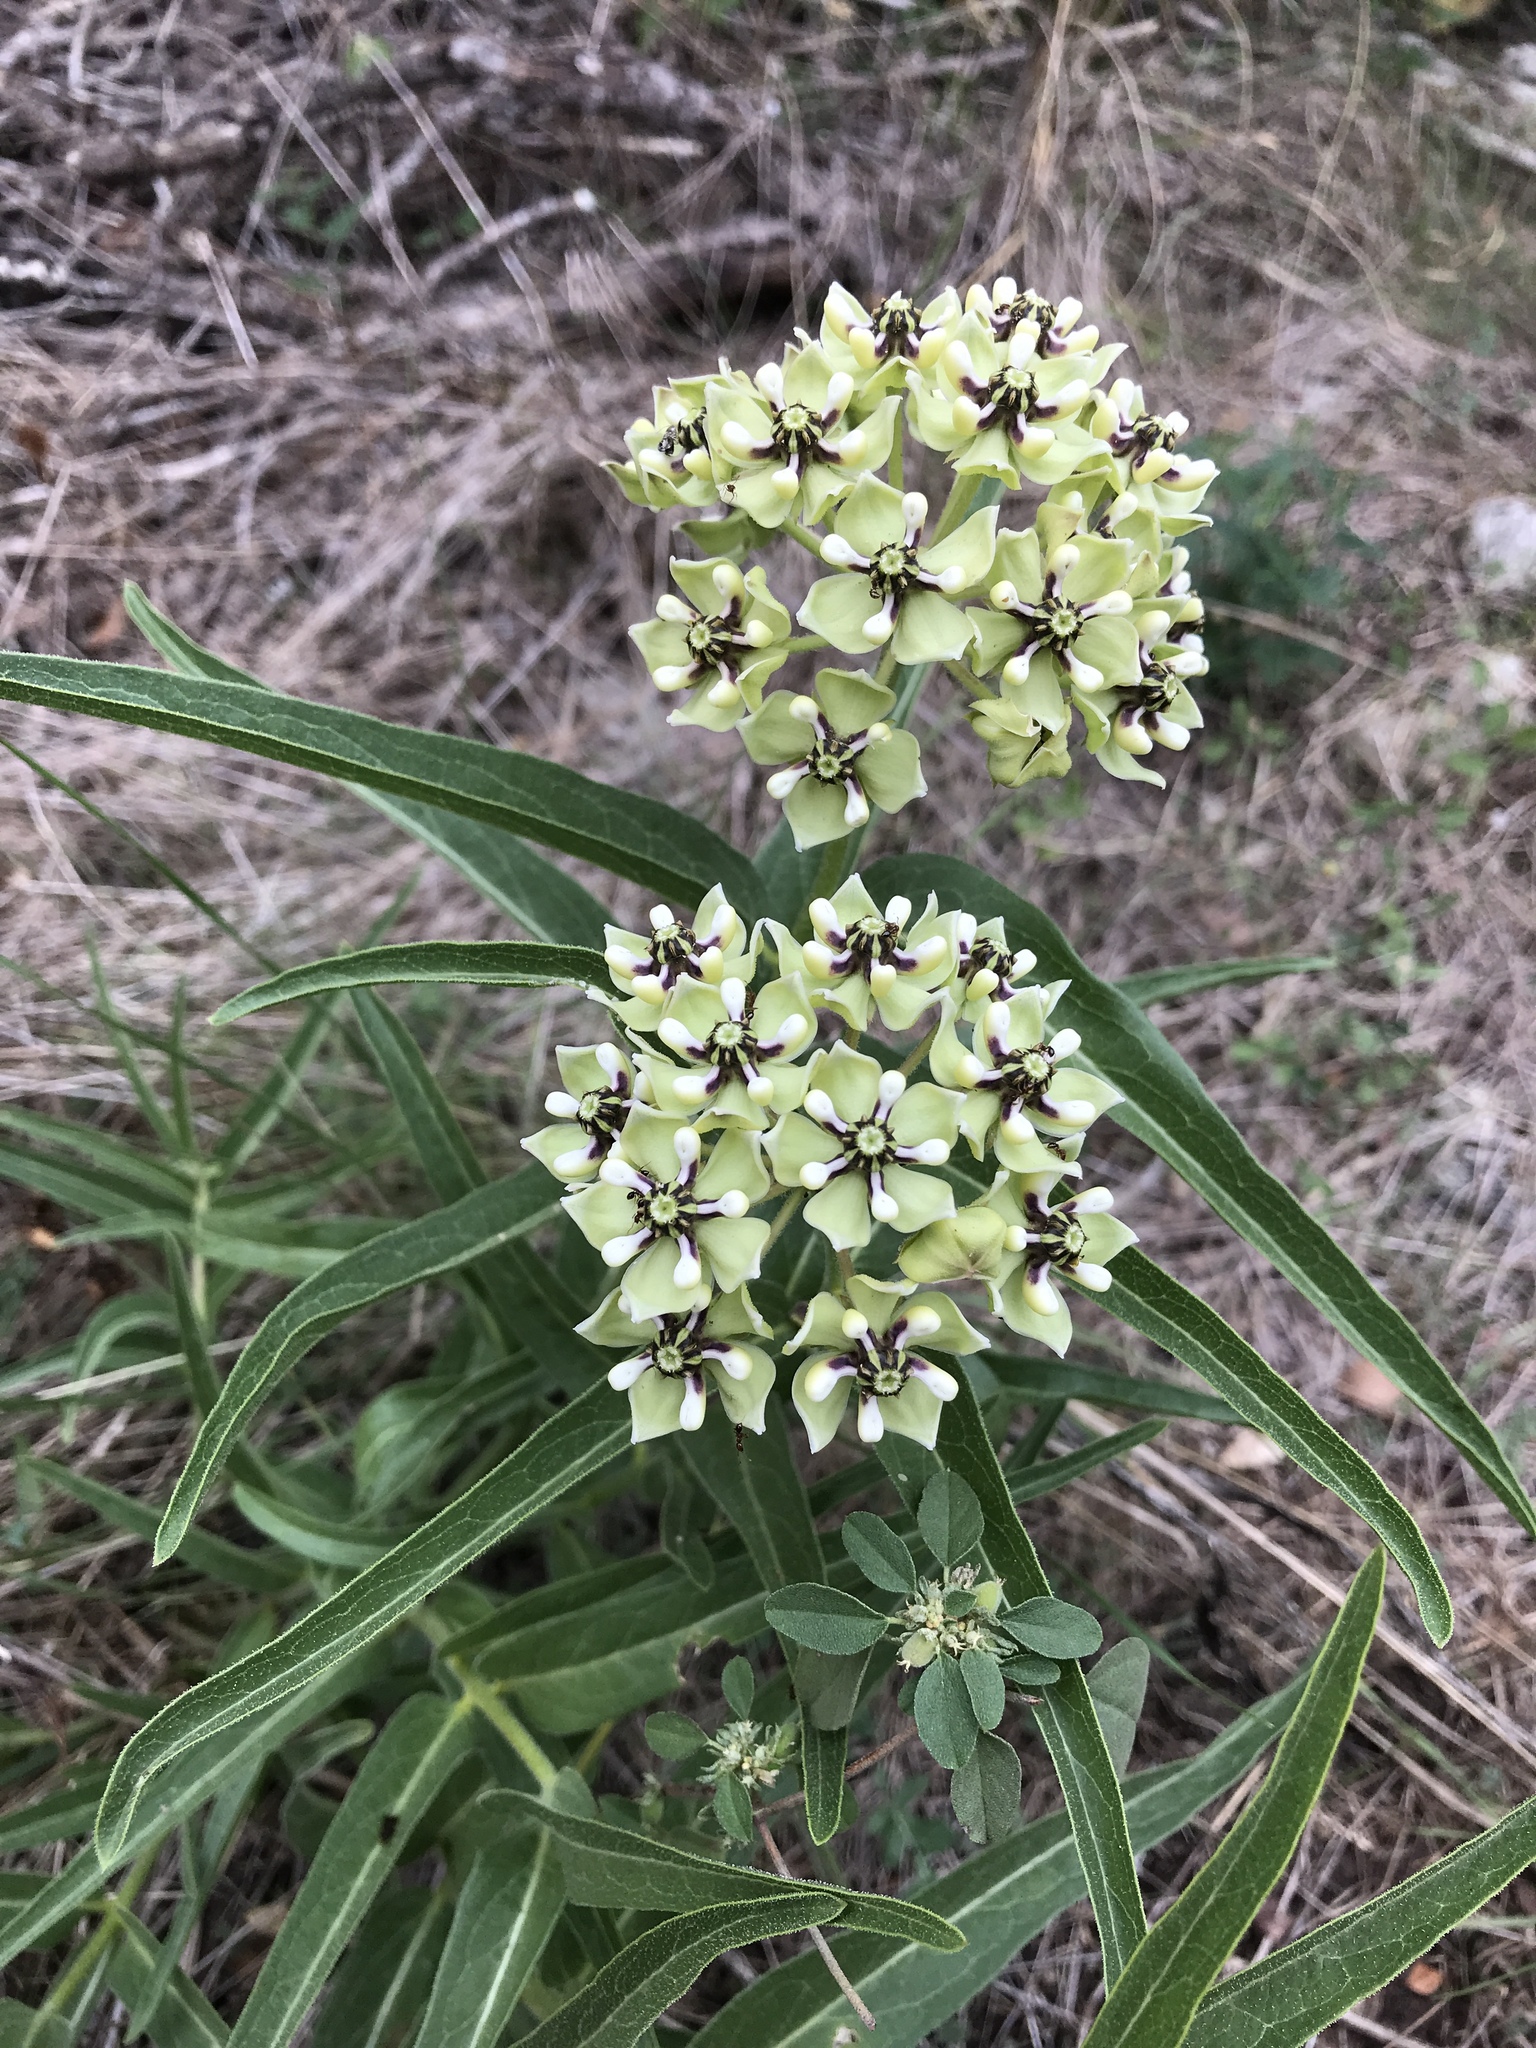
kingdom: Plantae
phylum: Tracheophyta
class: Magnoliopsida
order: Gentianales
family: Apocynaceae
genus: Asclepias
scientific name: Asclepias asperula
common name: Antelope horns
